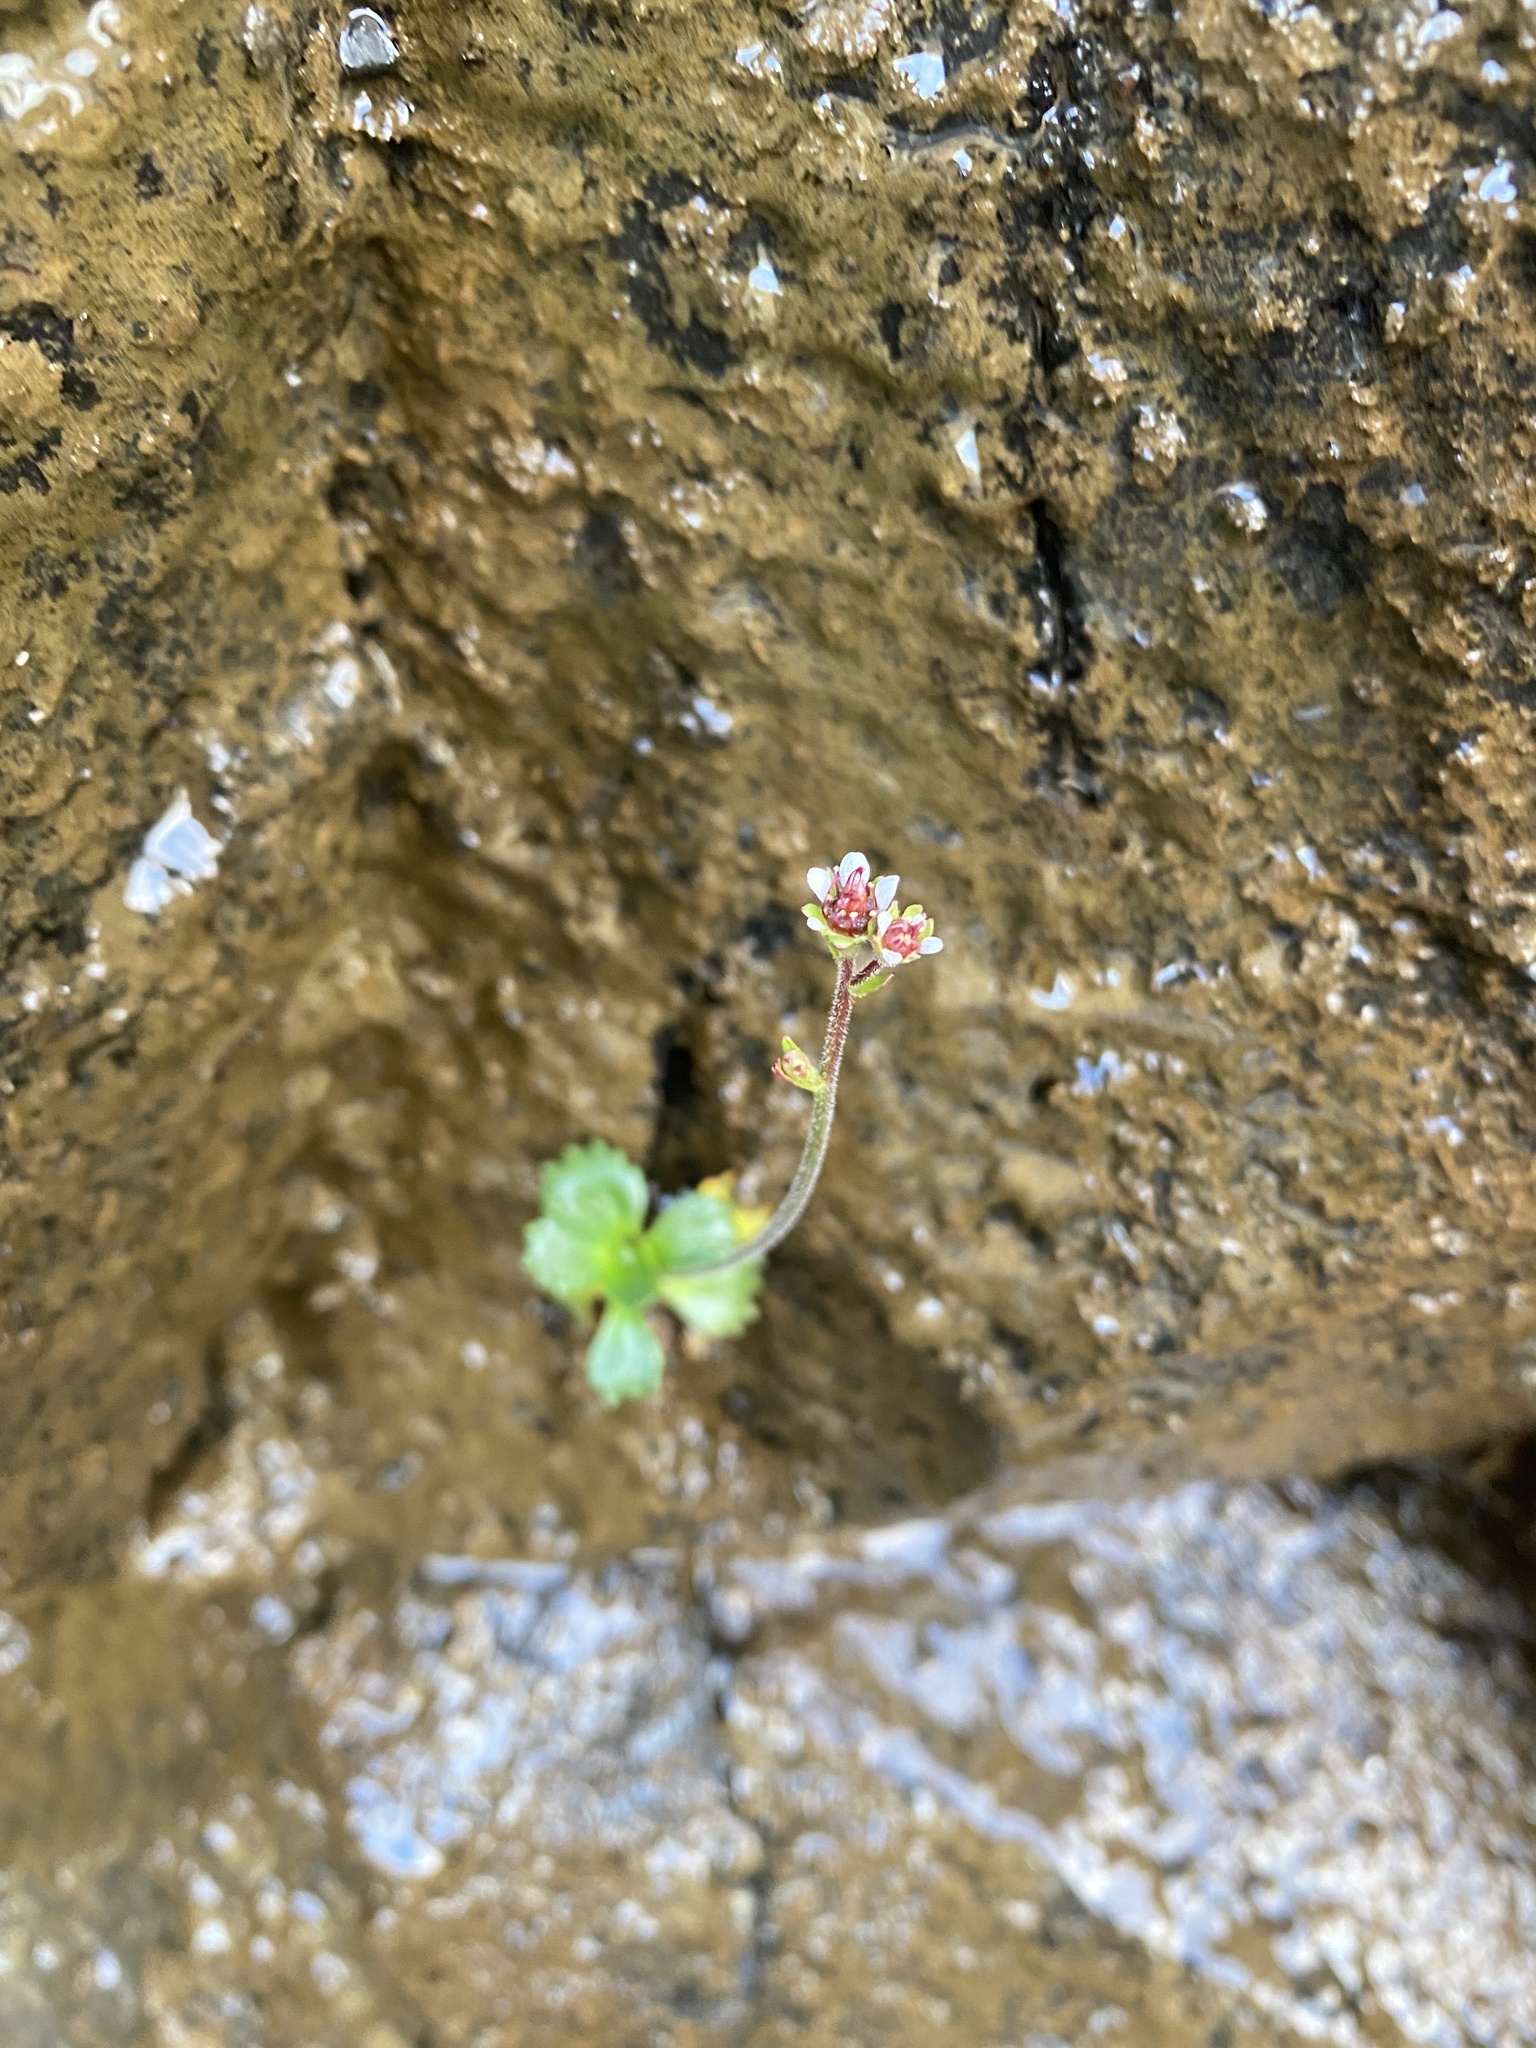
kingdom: Plantae
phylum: Tracheophyta
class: Magnoliopsida
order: Saxifragales
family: Saxifragaceae
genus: Micranthes
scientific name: Micranthes nivalis
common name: Alpine saxifrage
